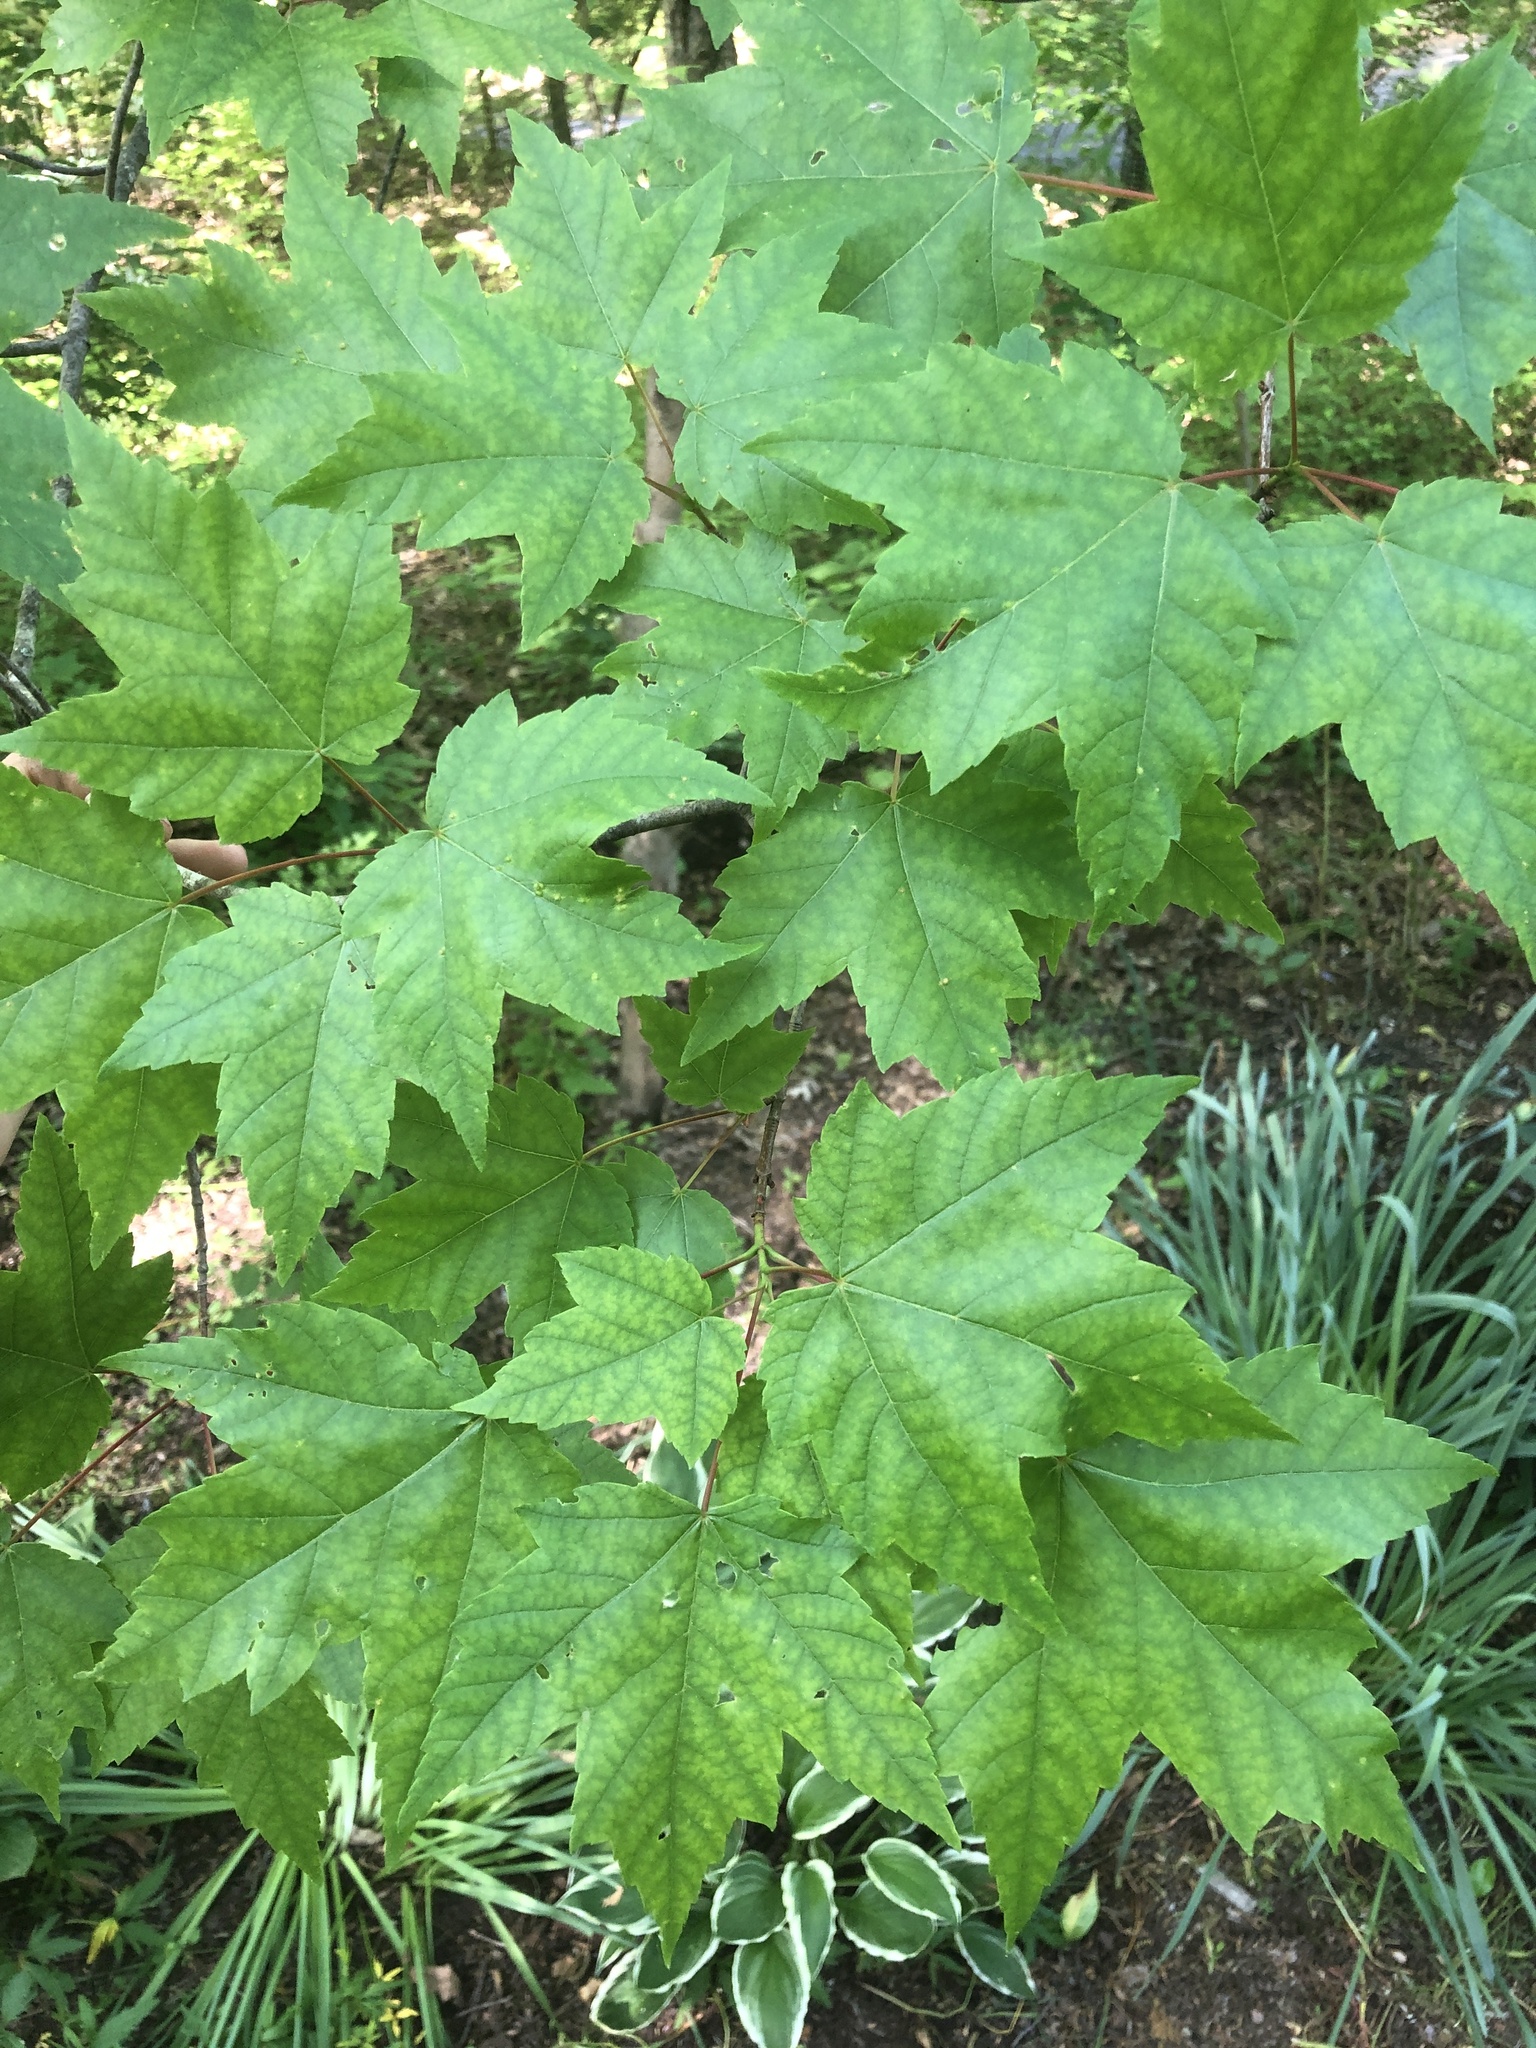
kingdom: Plantae
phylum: Tracheophyta
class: Magnoliopsida
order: Sapindales
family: Sapindaceae
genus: Acer
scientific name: Acer rubrum
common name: Red maple
